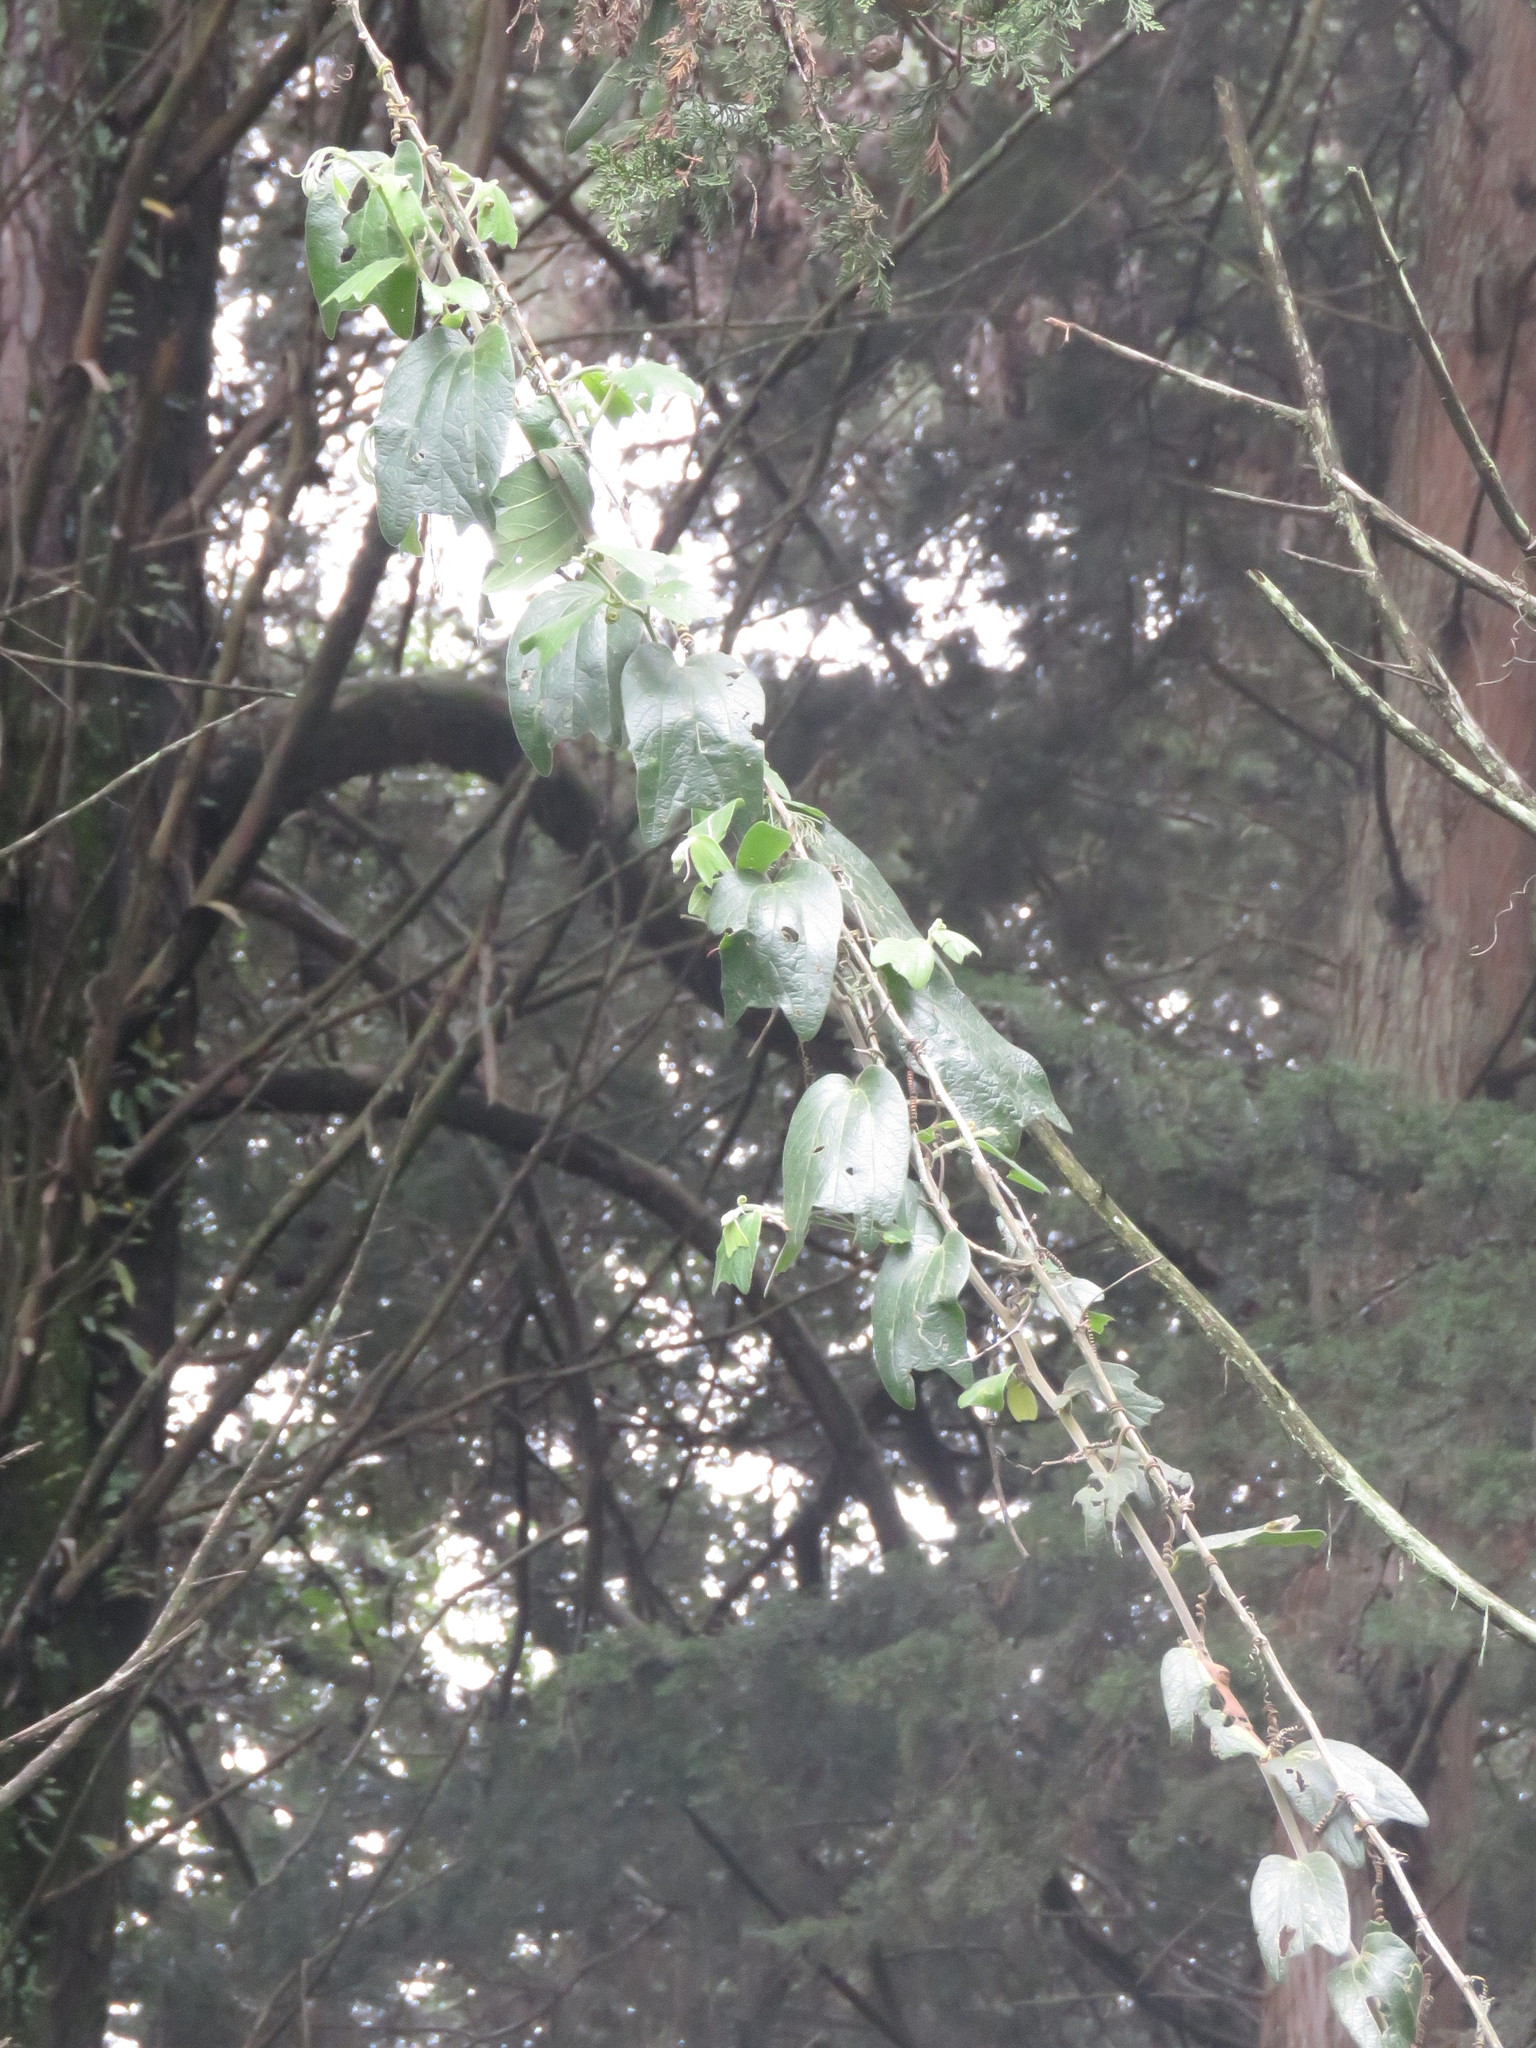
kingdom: Plantae
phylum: Tracheophyta
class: Magnoliopsida
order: Malpighiales
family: Passifloraceae
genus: Passiflora
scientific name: Passiflora bogotensis
